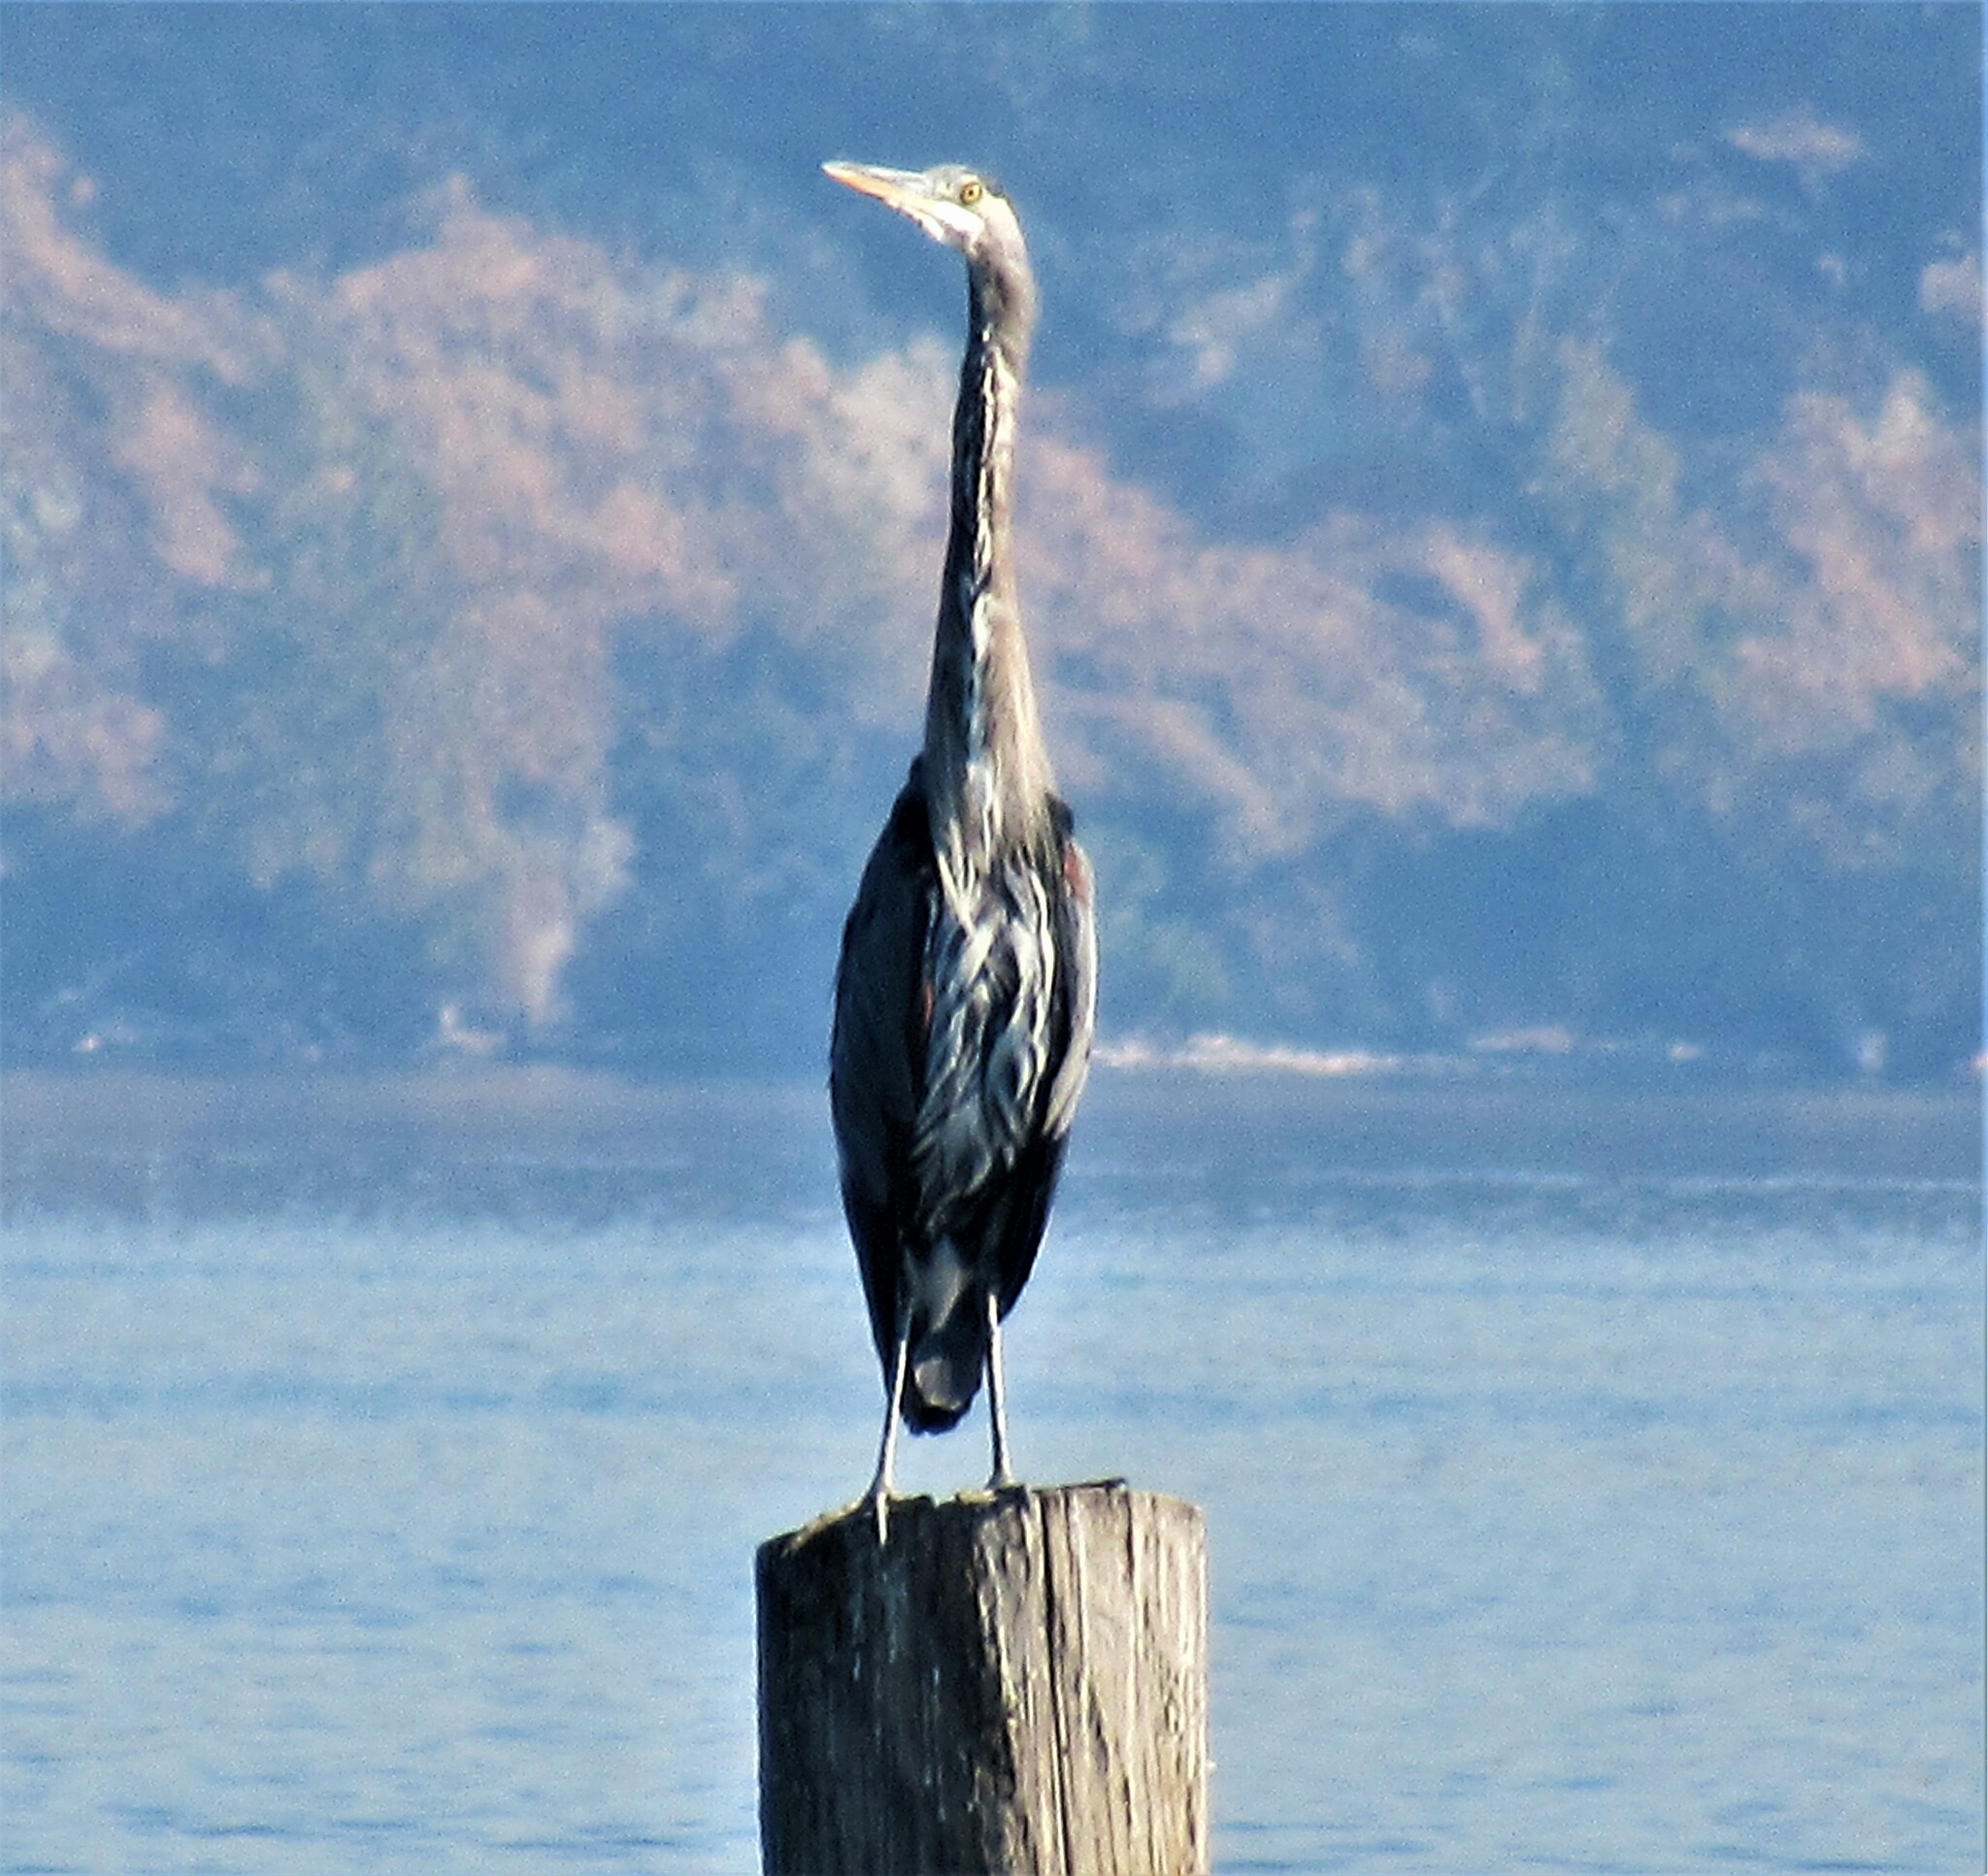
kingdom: Animalia
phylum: Chordata
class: Aves
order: Pelecaniformes
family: Ardeidae
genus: Ardea
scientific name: Ardea herodias
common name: Great blue heron
